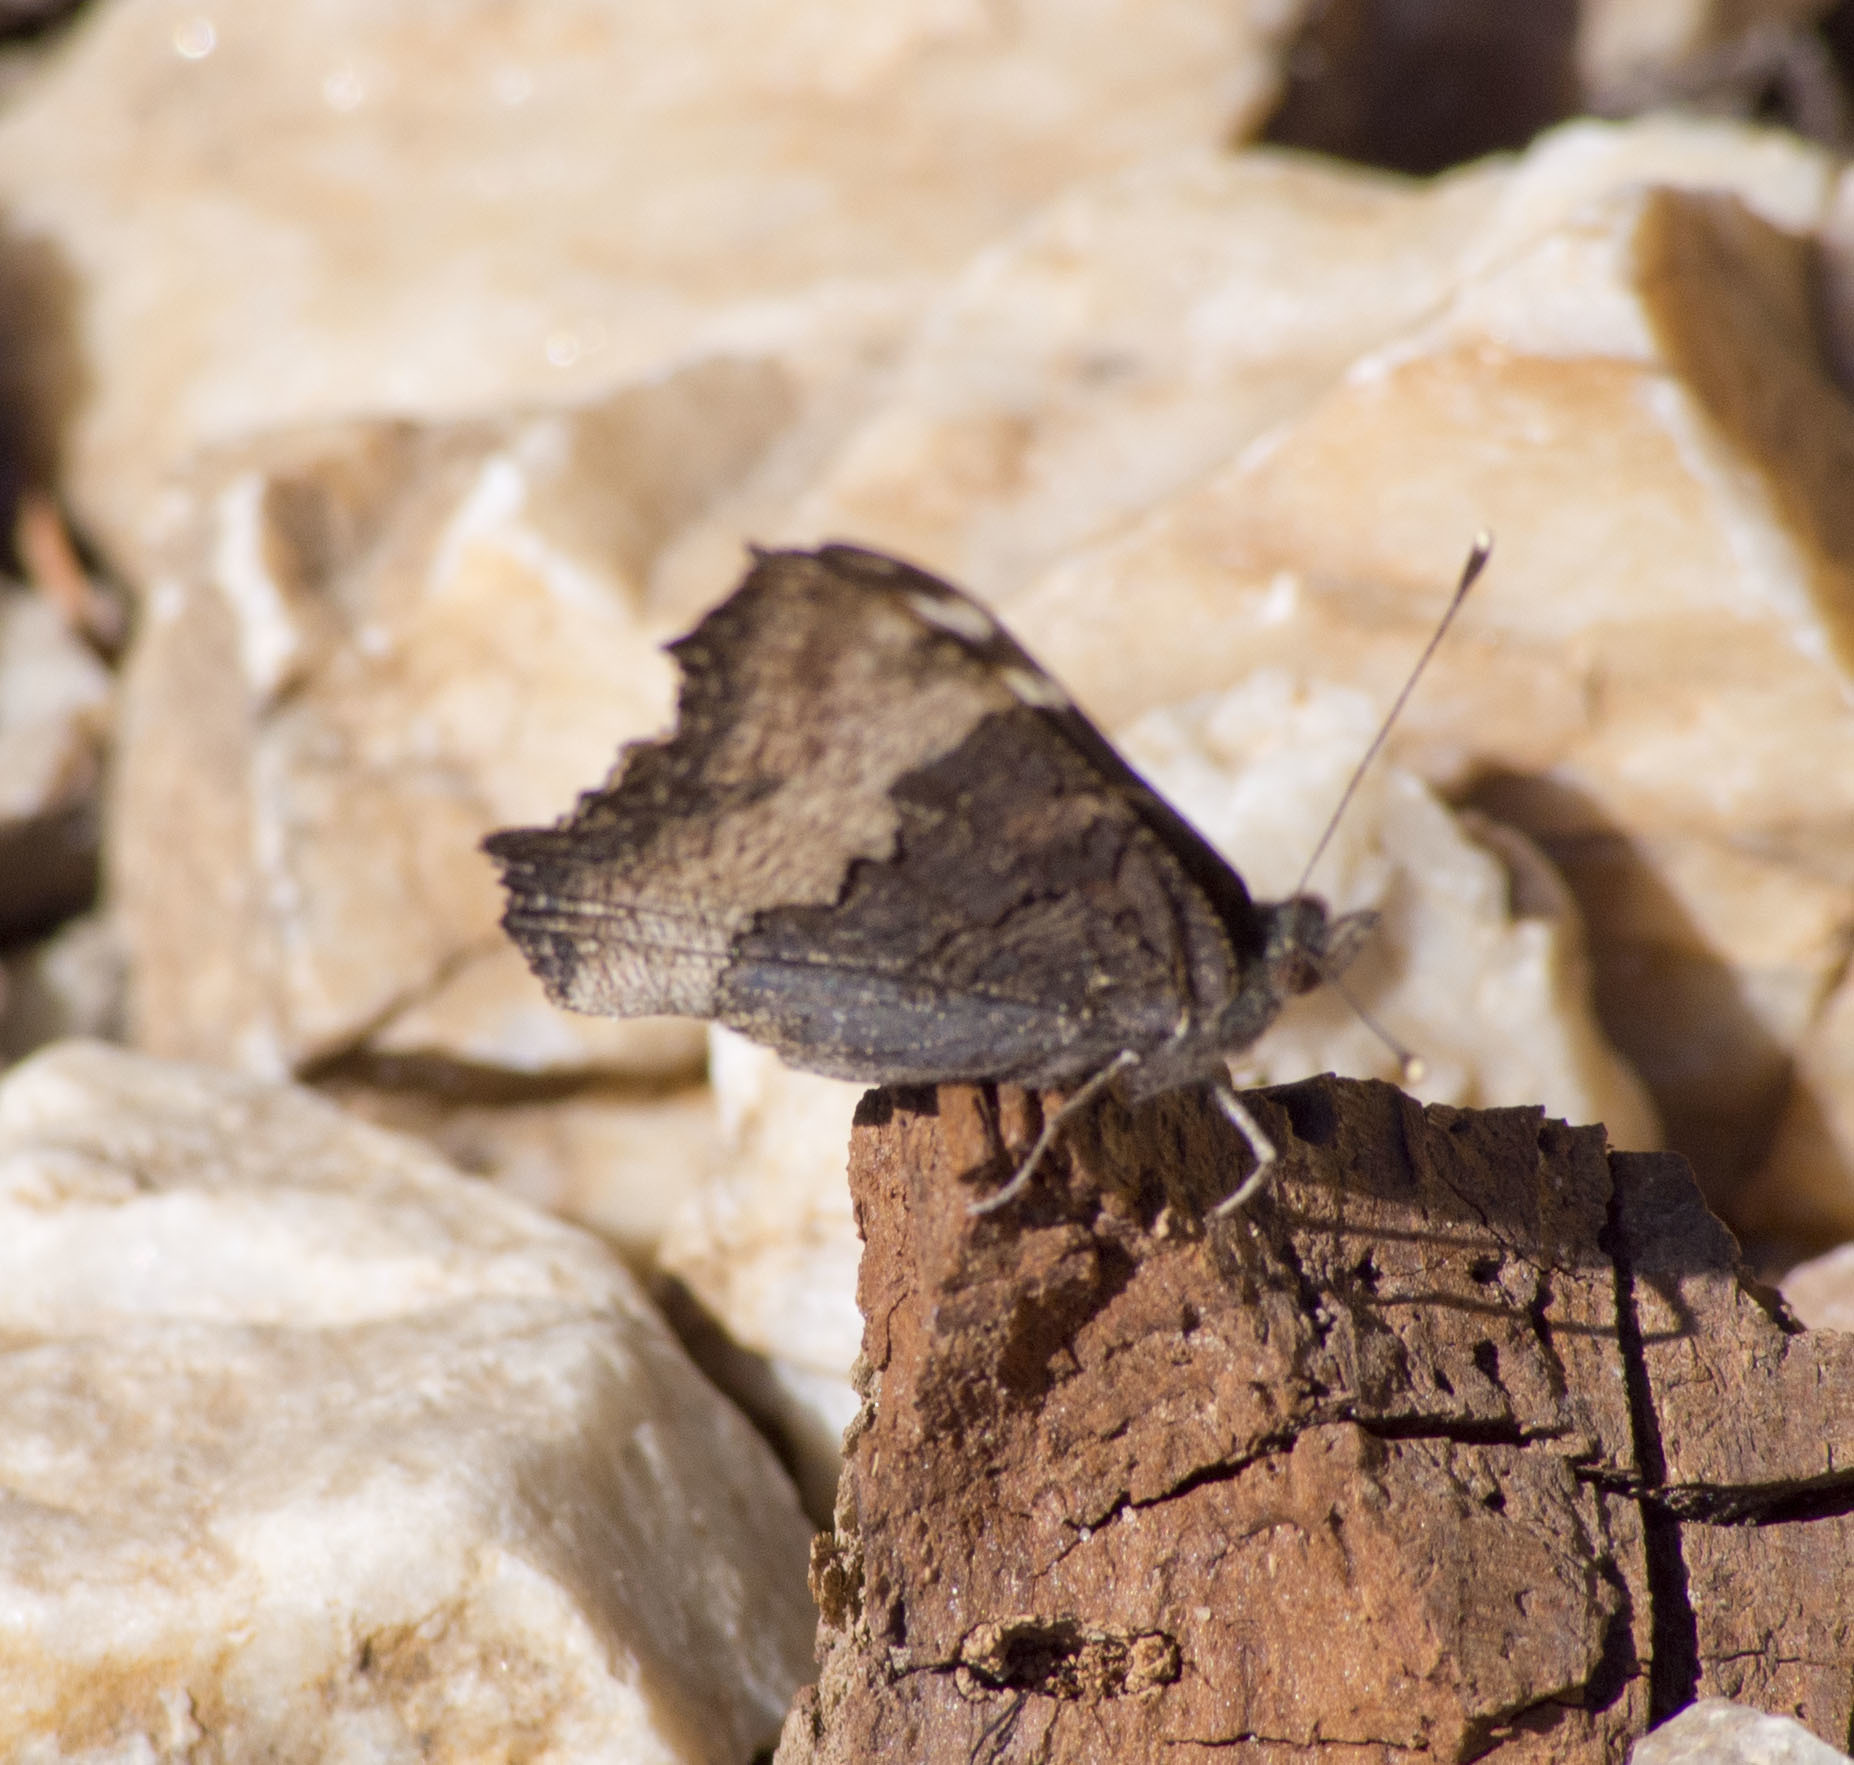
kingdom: Animalia
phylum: Arthropoda
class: Insecta
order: Lepidoptera
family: Nymphalidae
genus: Aglais
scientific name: Aglais milberti
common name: Milbert's tortoiseshell
